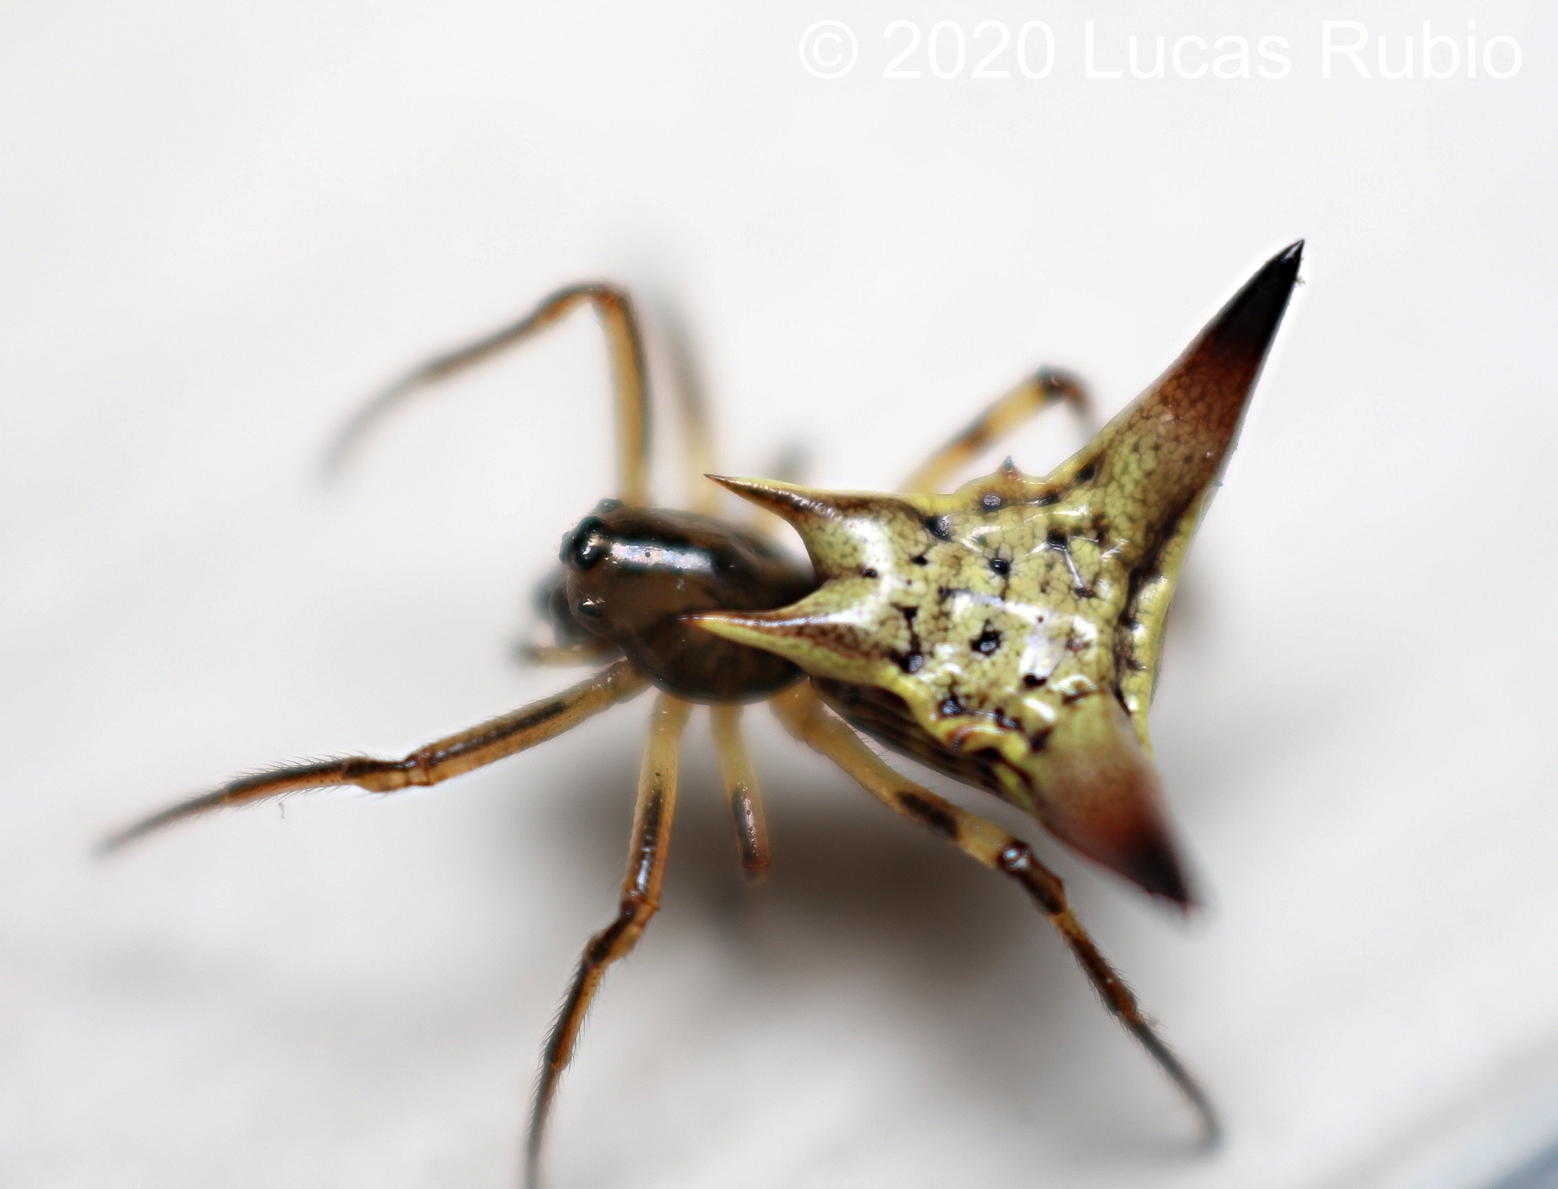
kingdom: Animalia
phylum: Arthropoda
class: Arachnida
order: Araneae
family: Araneidae
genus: Micrathena
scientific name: Micrathena annulata
